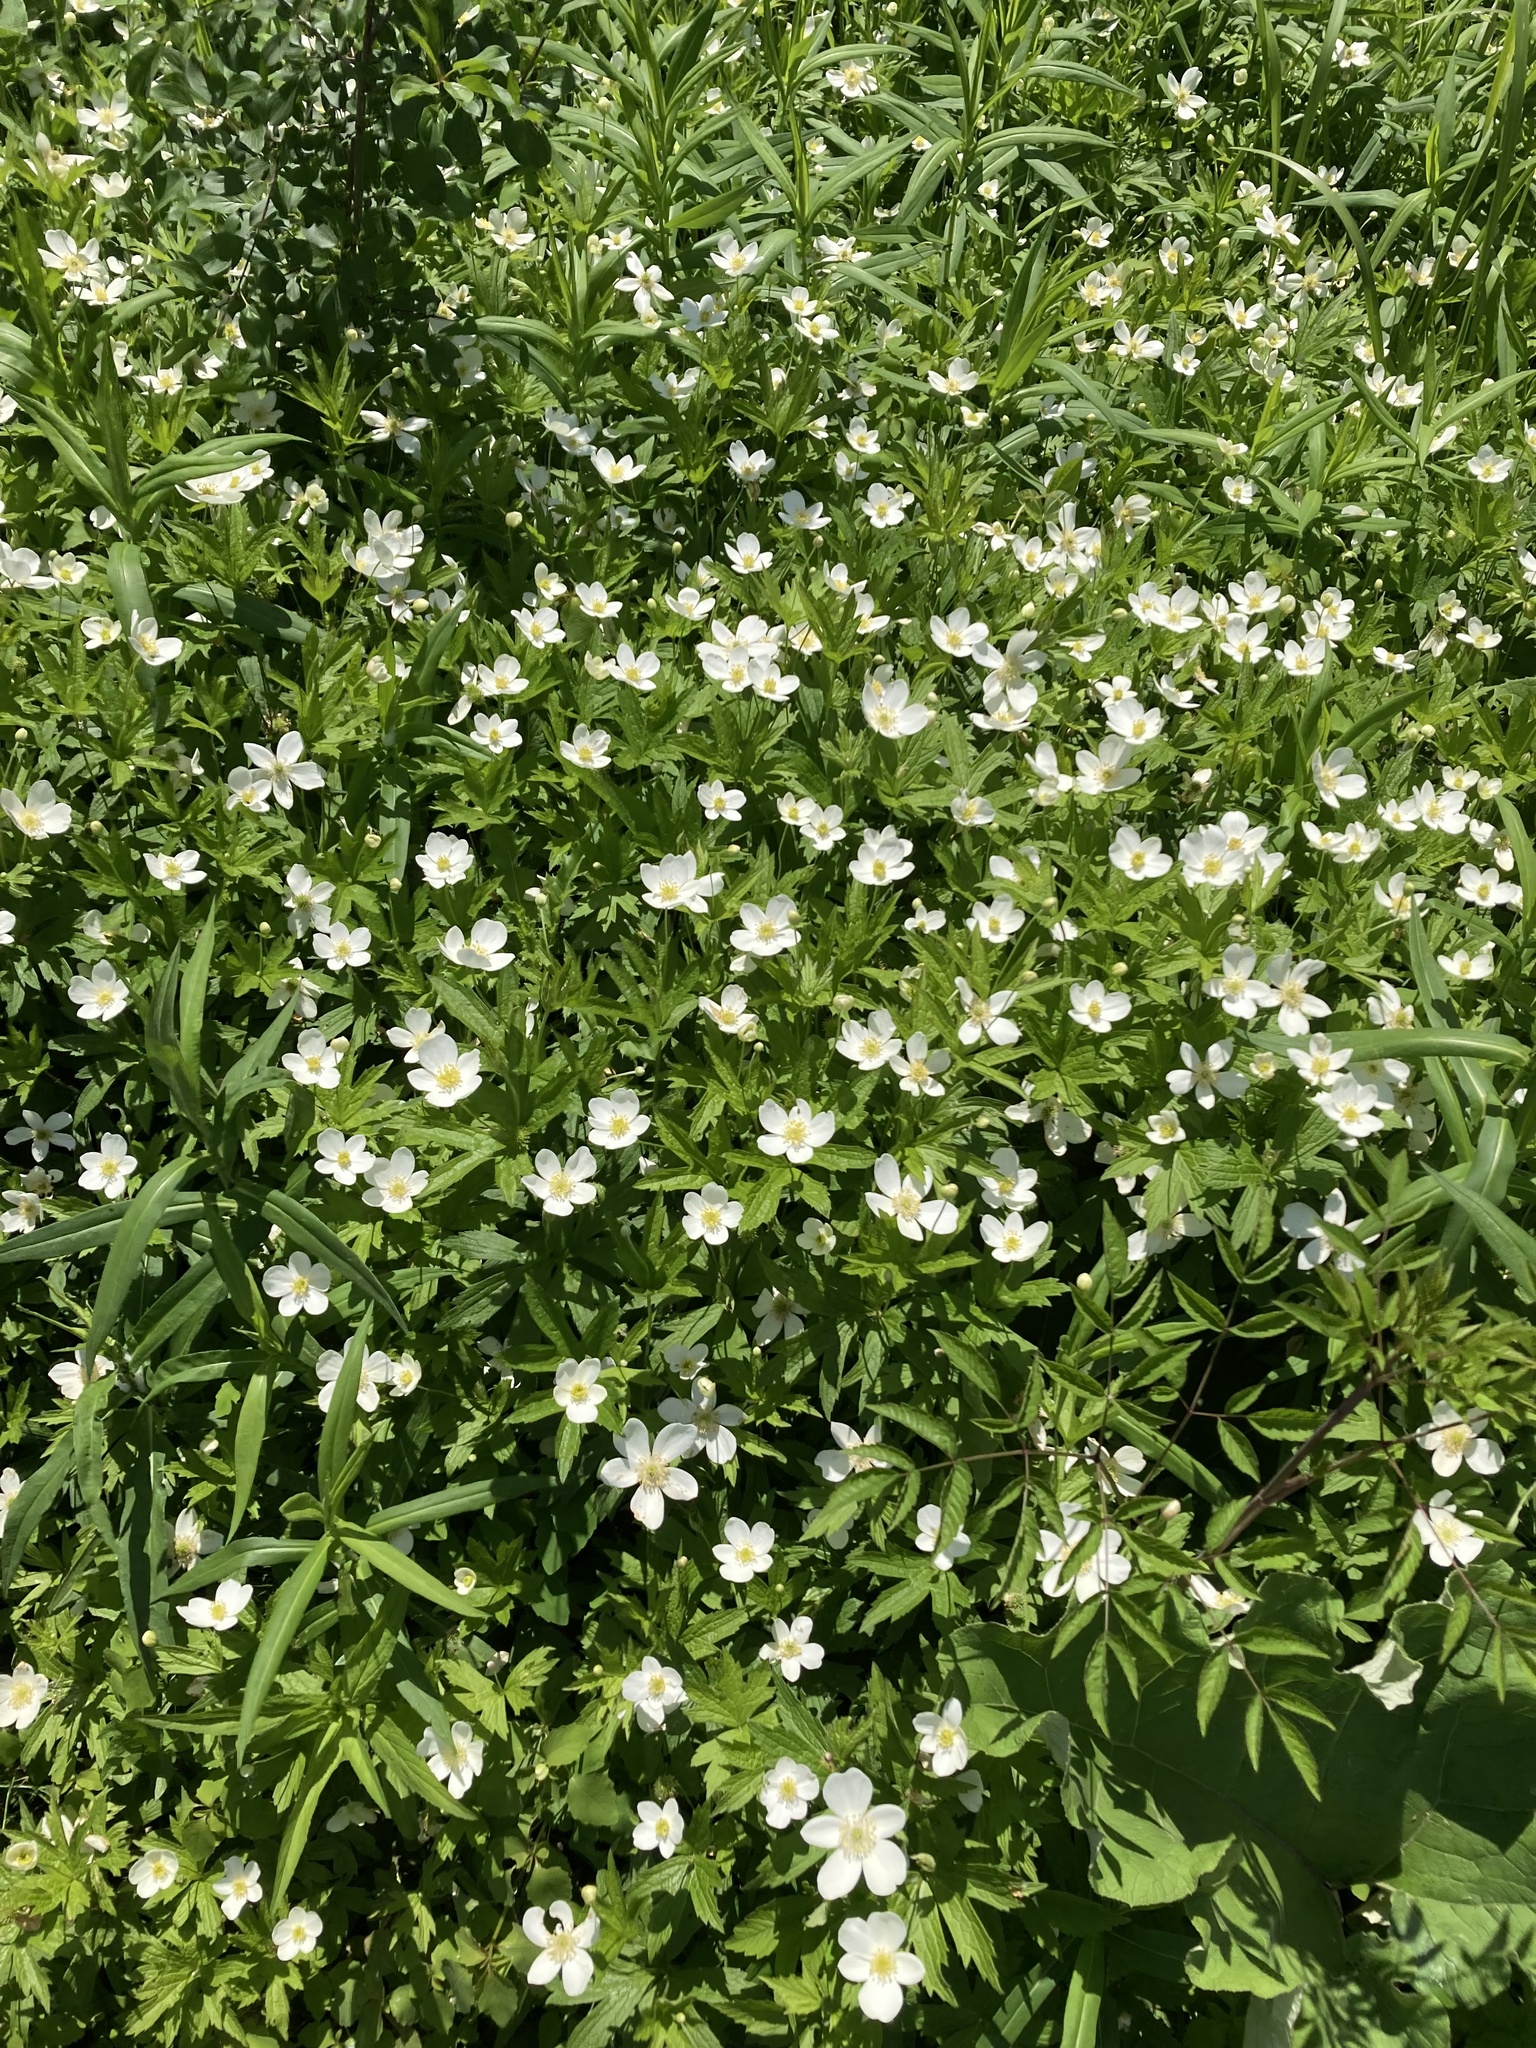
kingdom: Plantae
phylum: Tracheophyta
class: Magnoliopsida
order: Ranunculales
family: Ranunculaceae
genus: Anemonastrum
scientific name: Anemonastrum canadense
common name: Canada anemone
